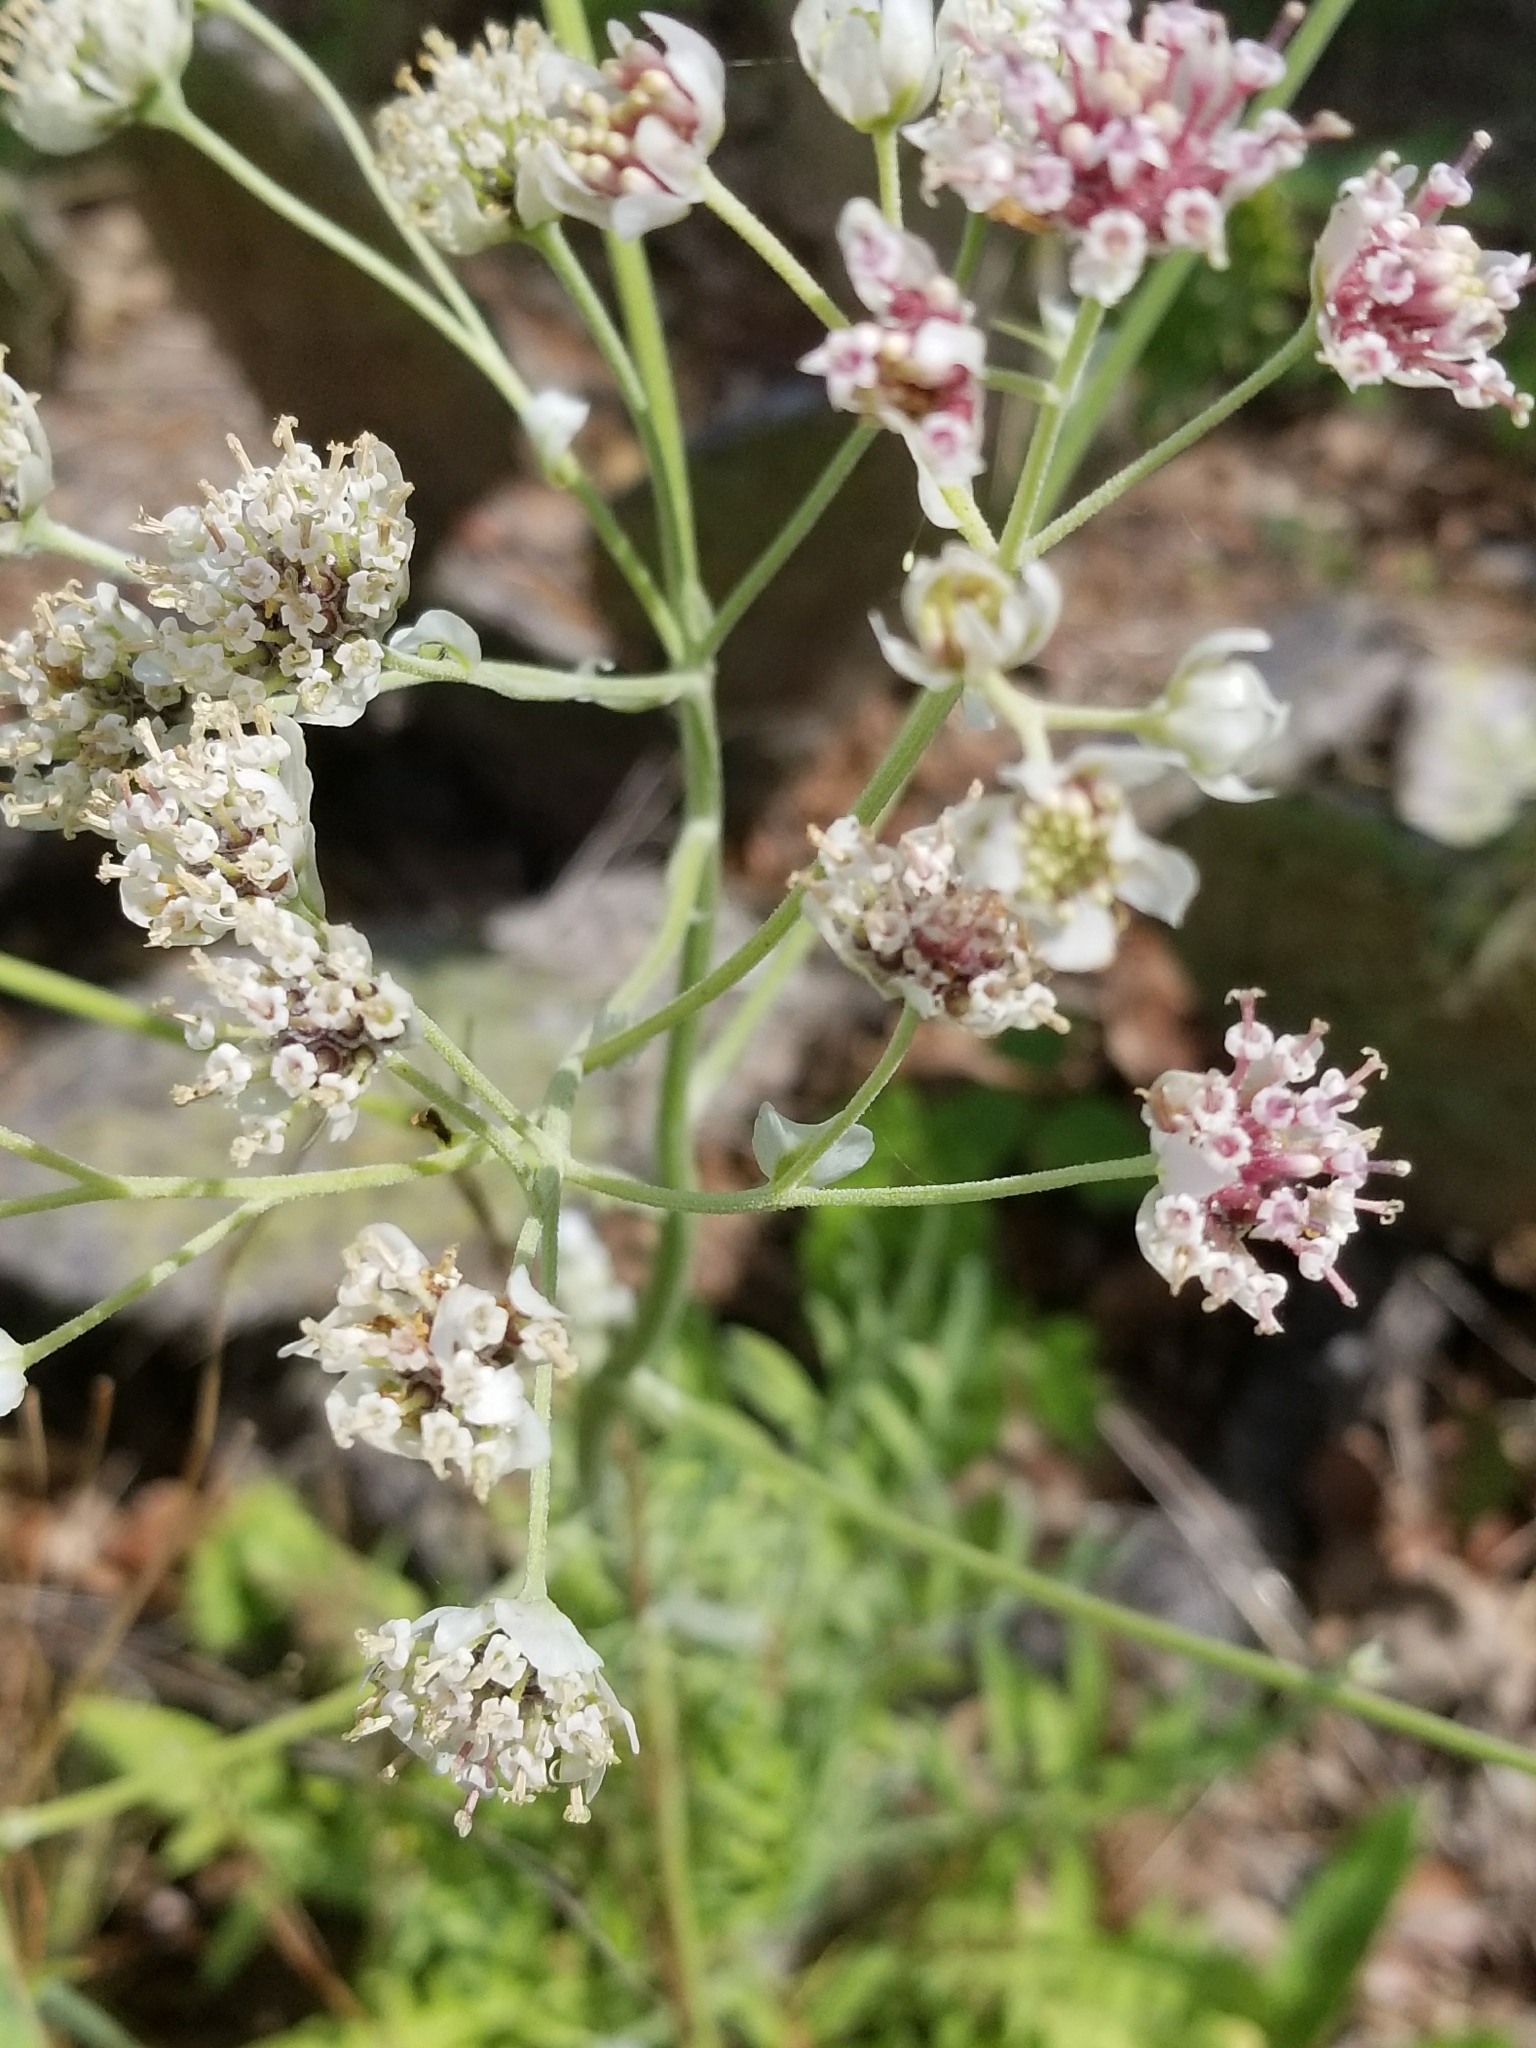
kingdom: Plantae
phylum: Tracheophyta
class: Magnoliopsida
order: Asterales
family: Asteraceae
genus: Hymenopappus
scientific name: Hymenopappus artemisiifolius
